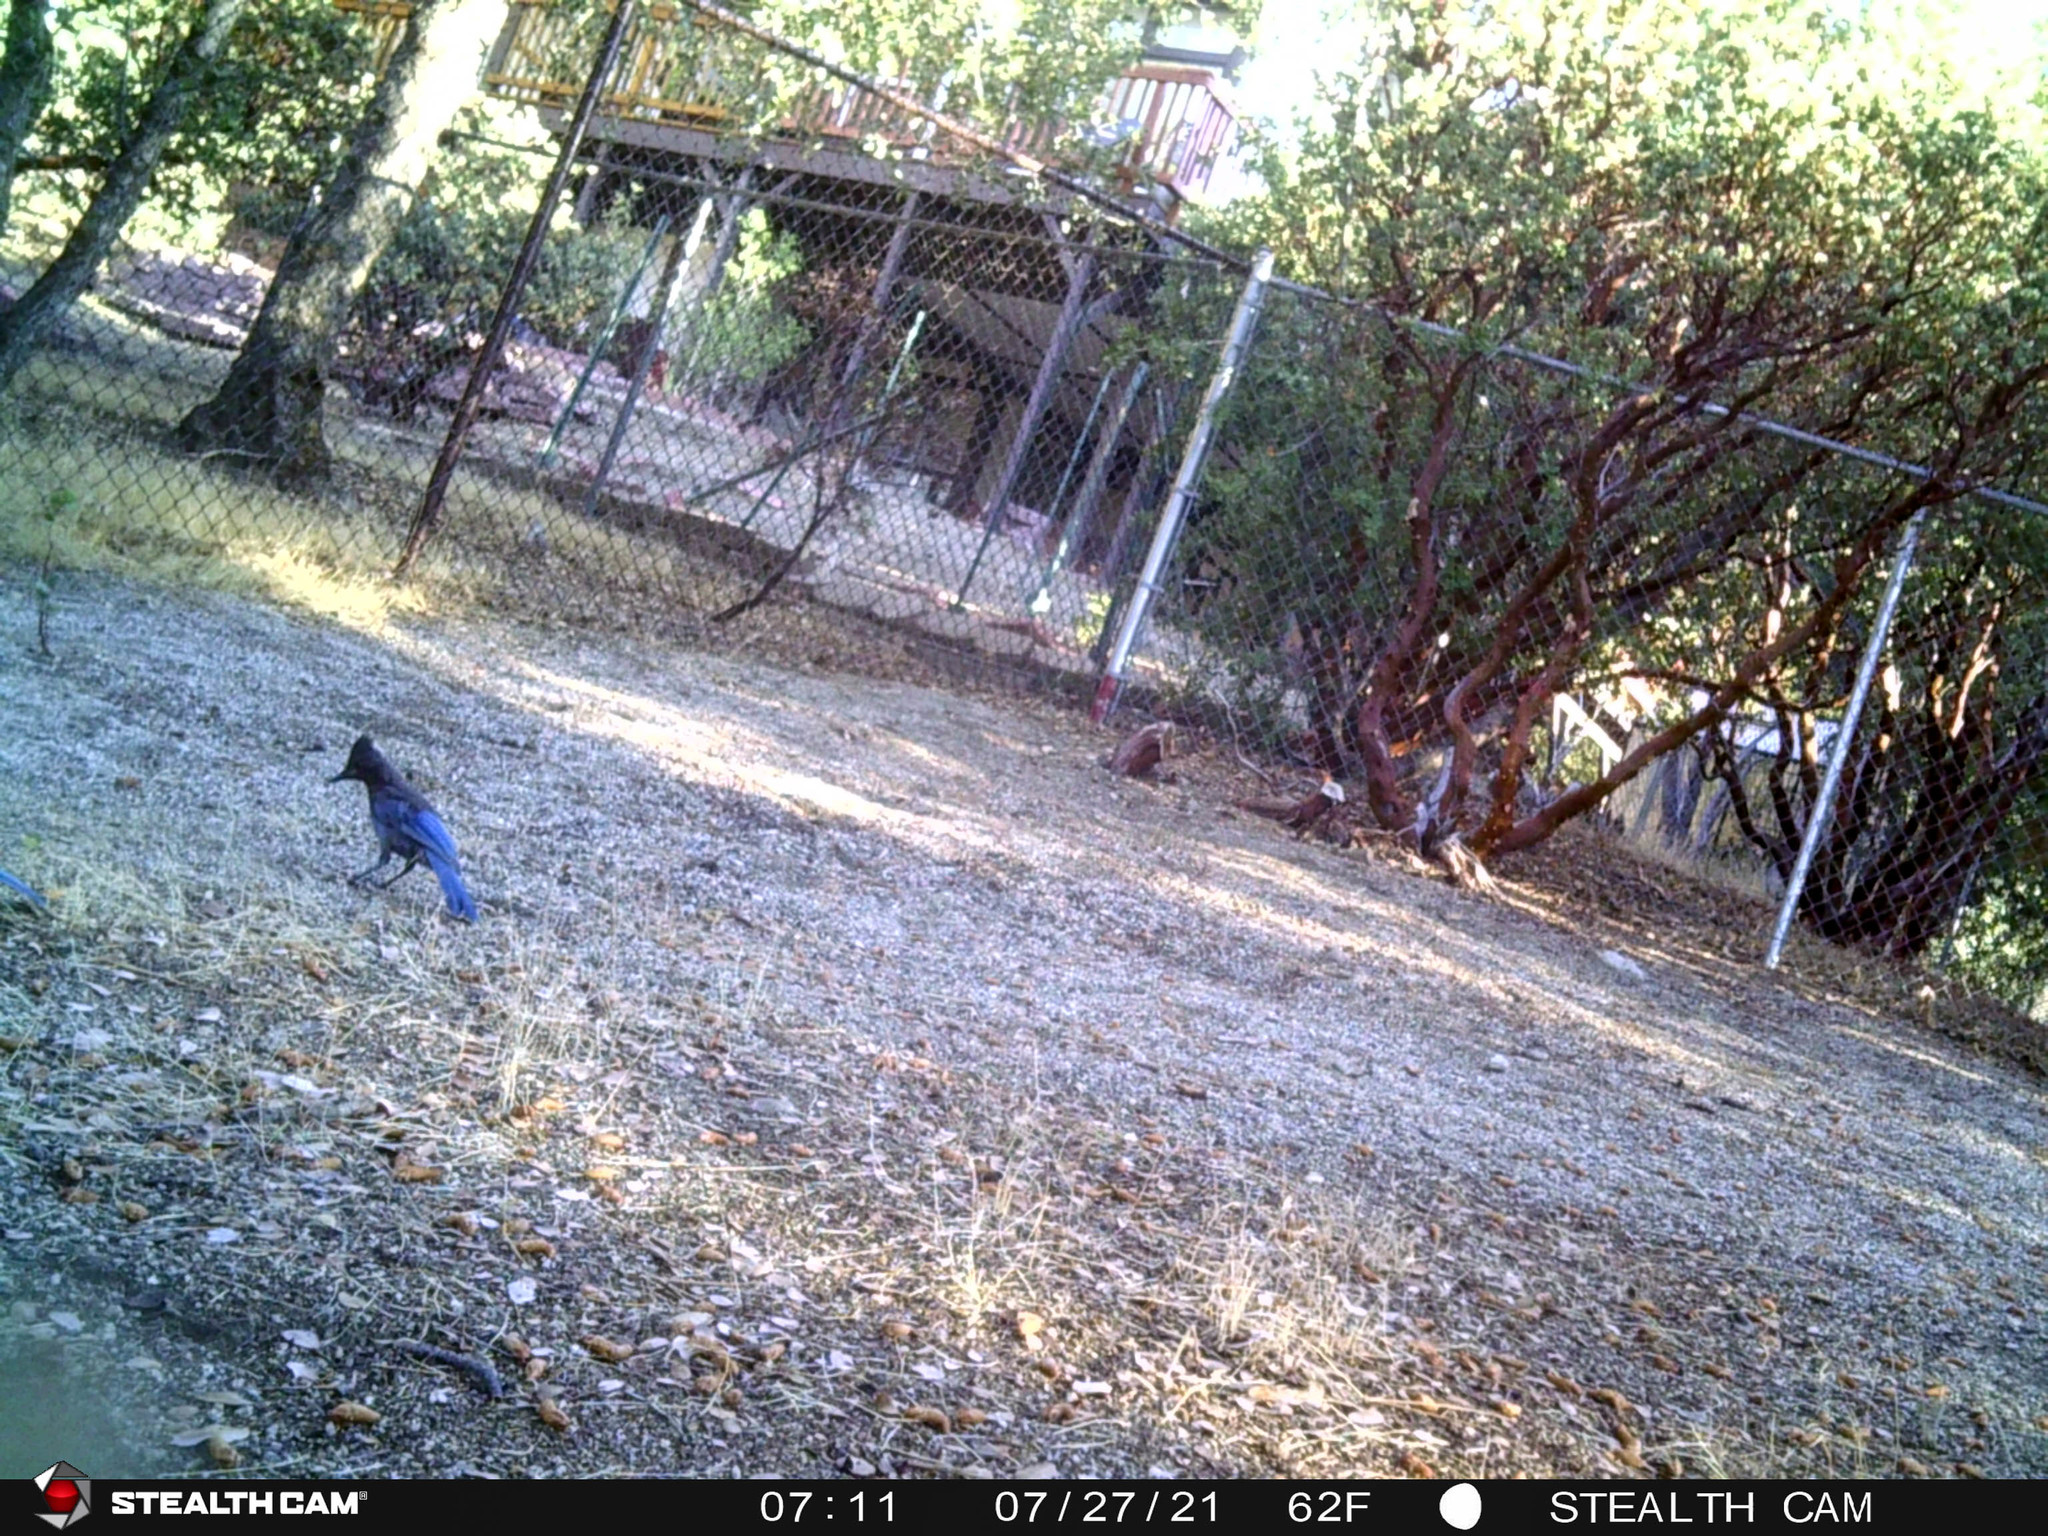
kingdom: Animalia
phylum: Chordata
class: Aves
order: Passeriformes
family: Corvidae
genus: Cyanocitta
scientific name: Cyanocitta stelleri
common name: Steller's jay
